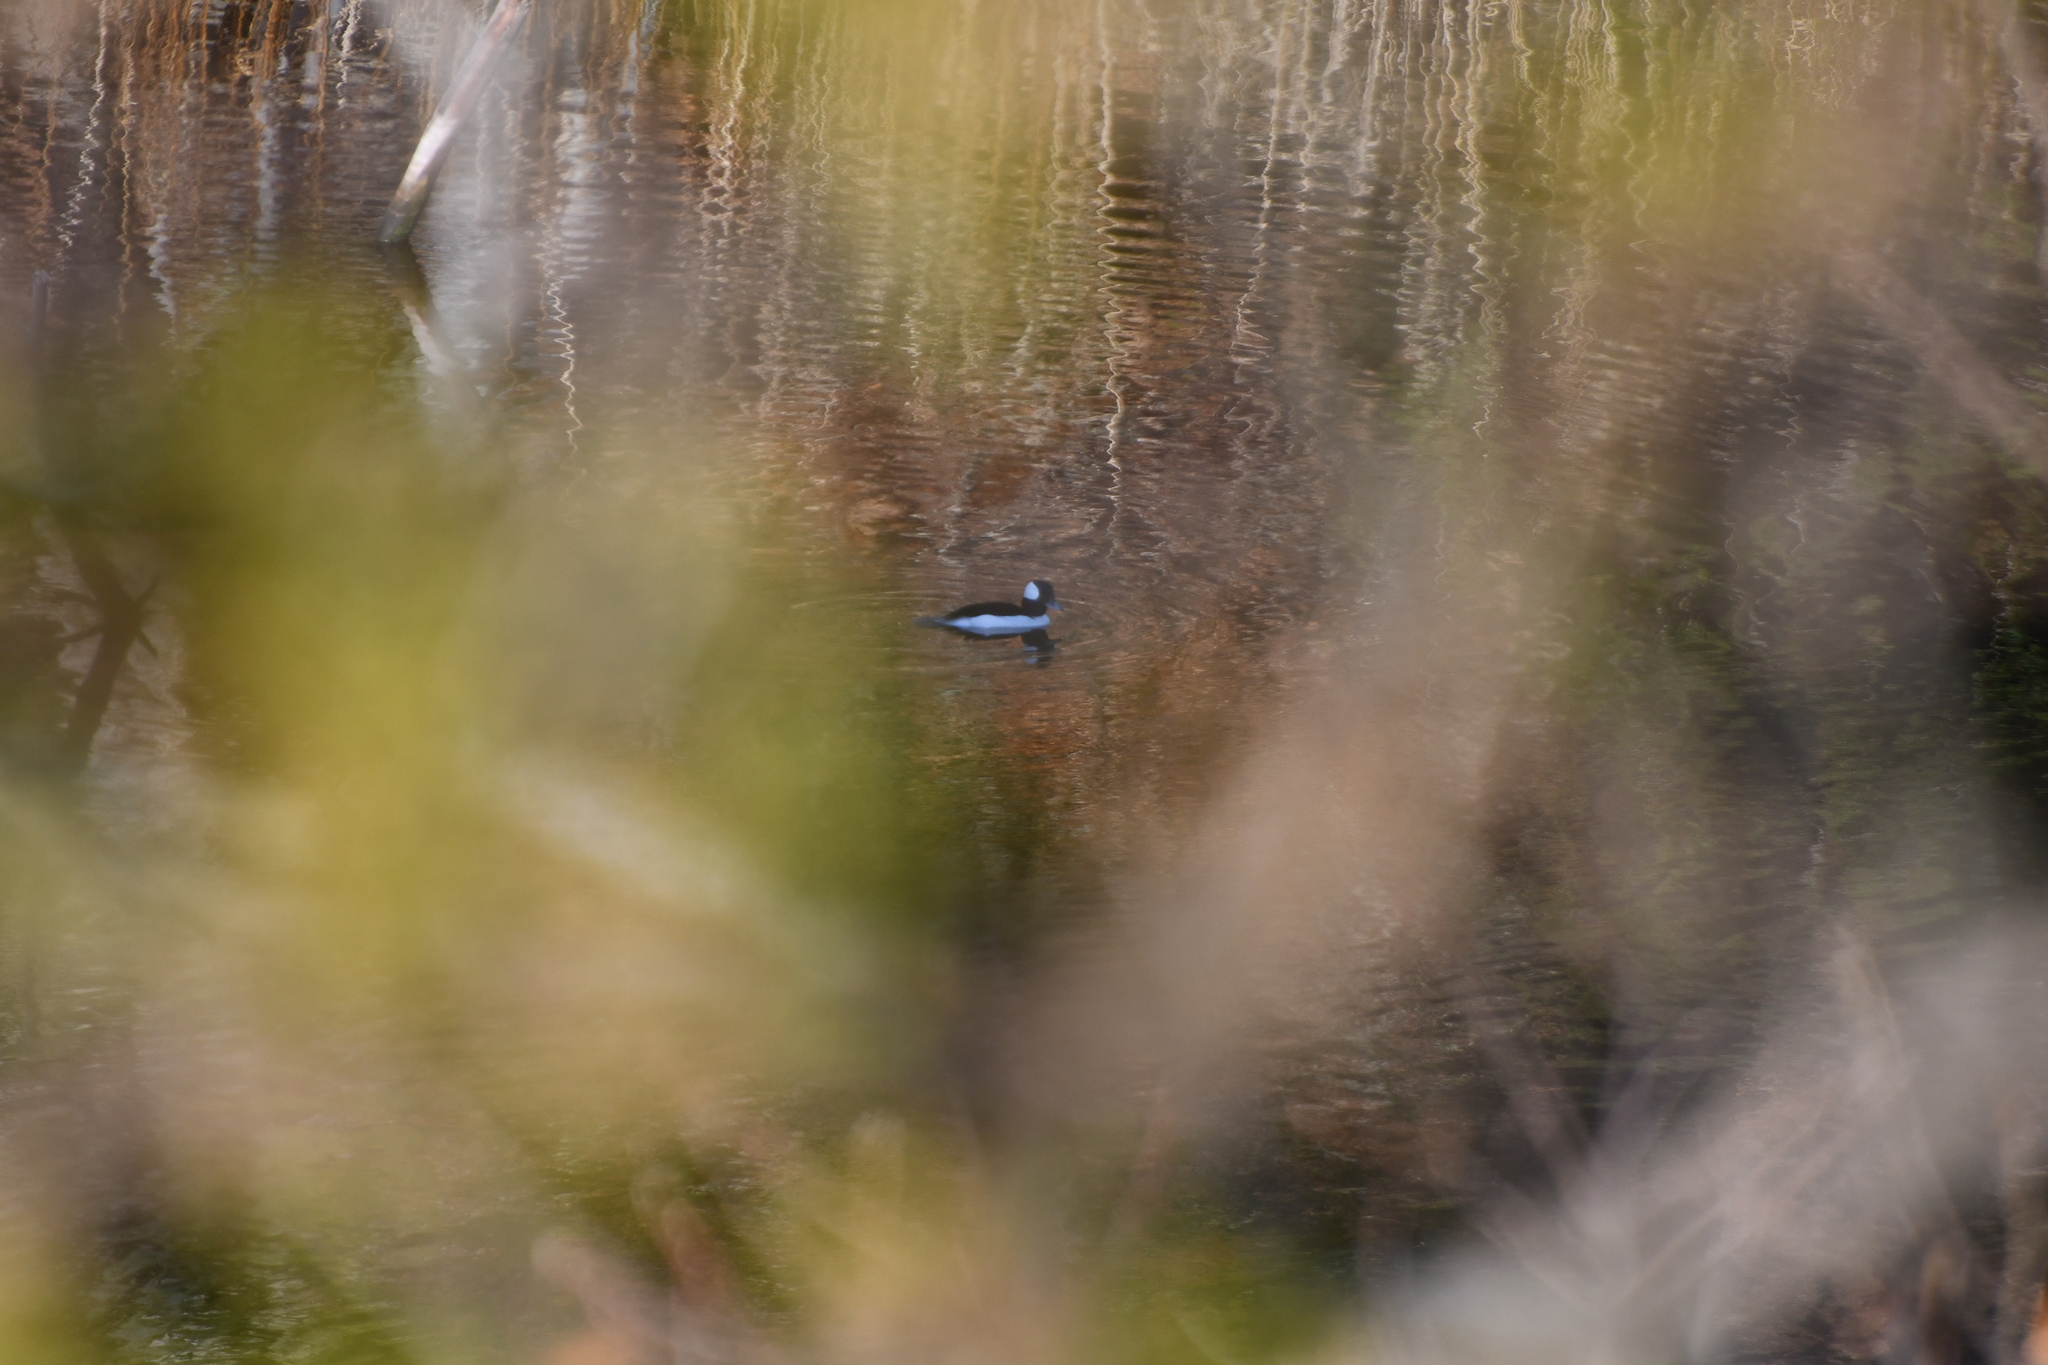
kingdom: Animalia
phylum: Chordata
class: Aves
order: Anseriformes
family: Anatidae
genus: Bucephala
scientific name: Bucephala albeola
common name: Bufflehead
